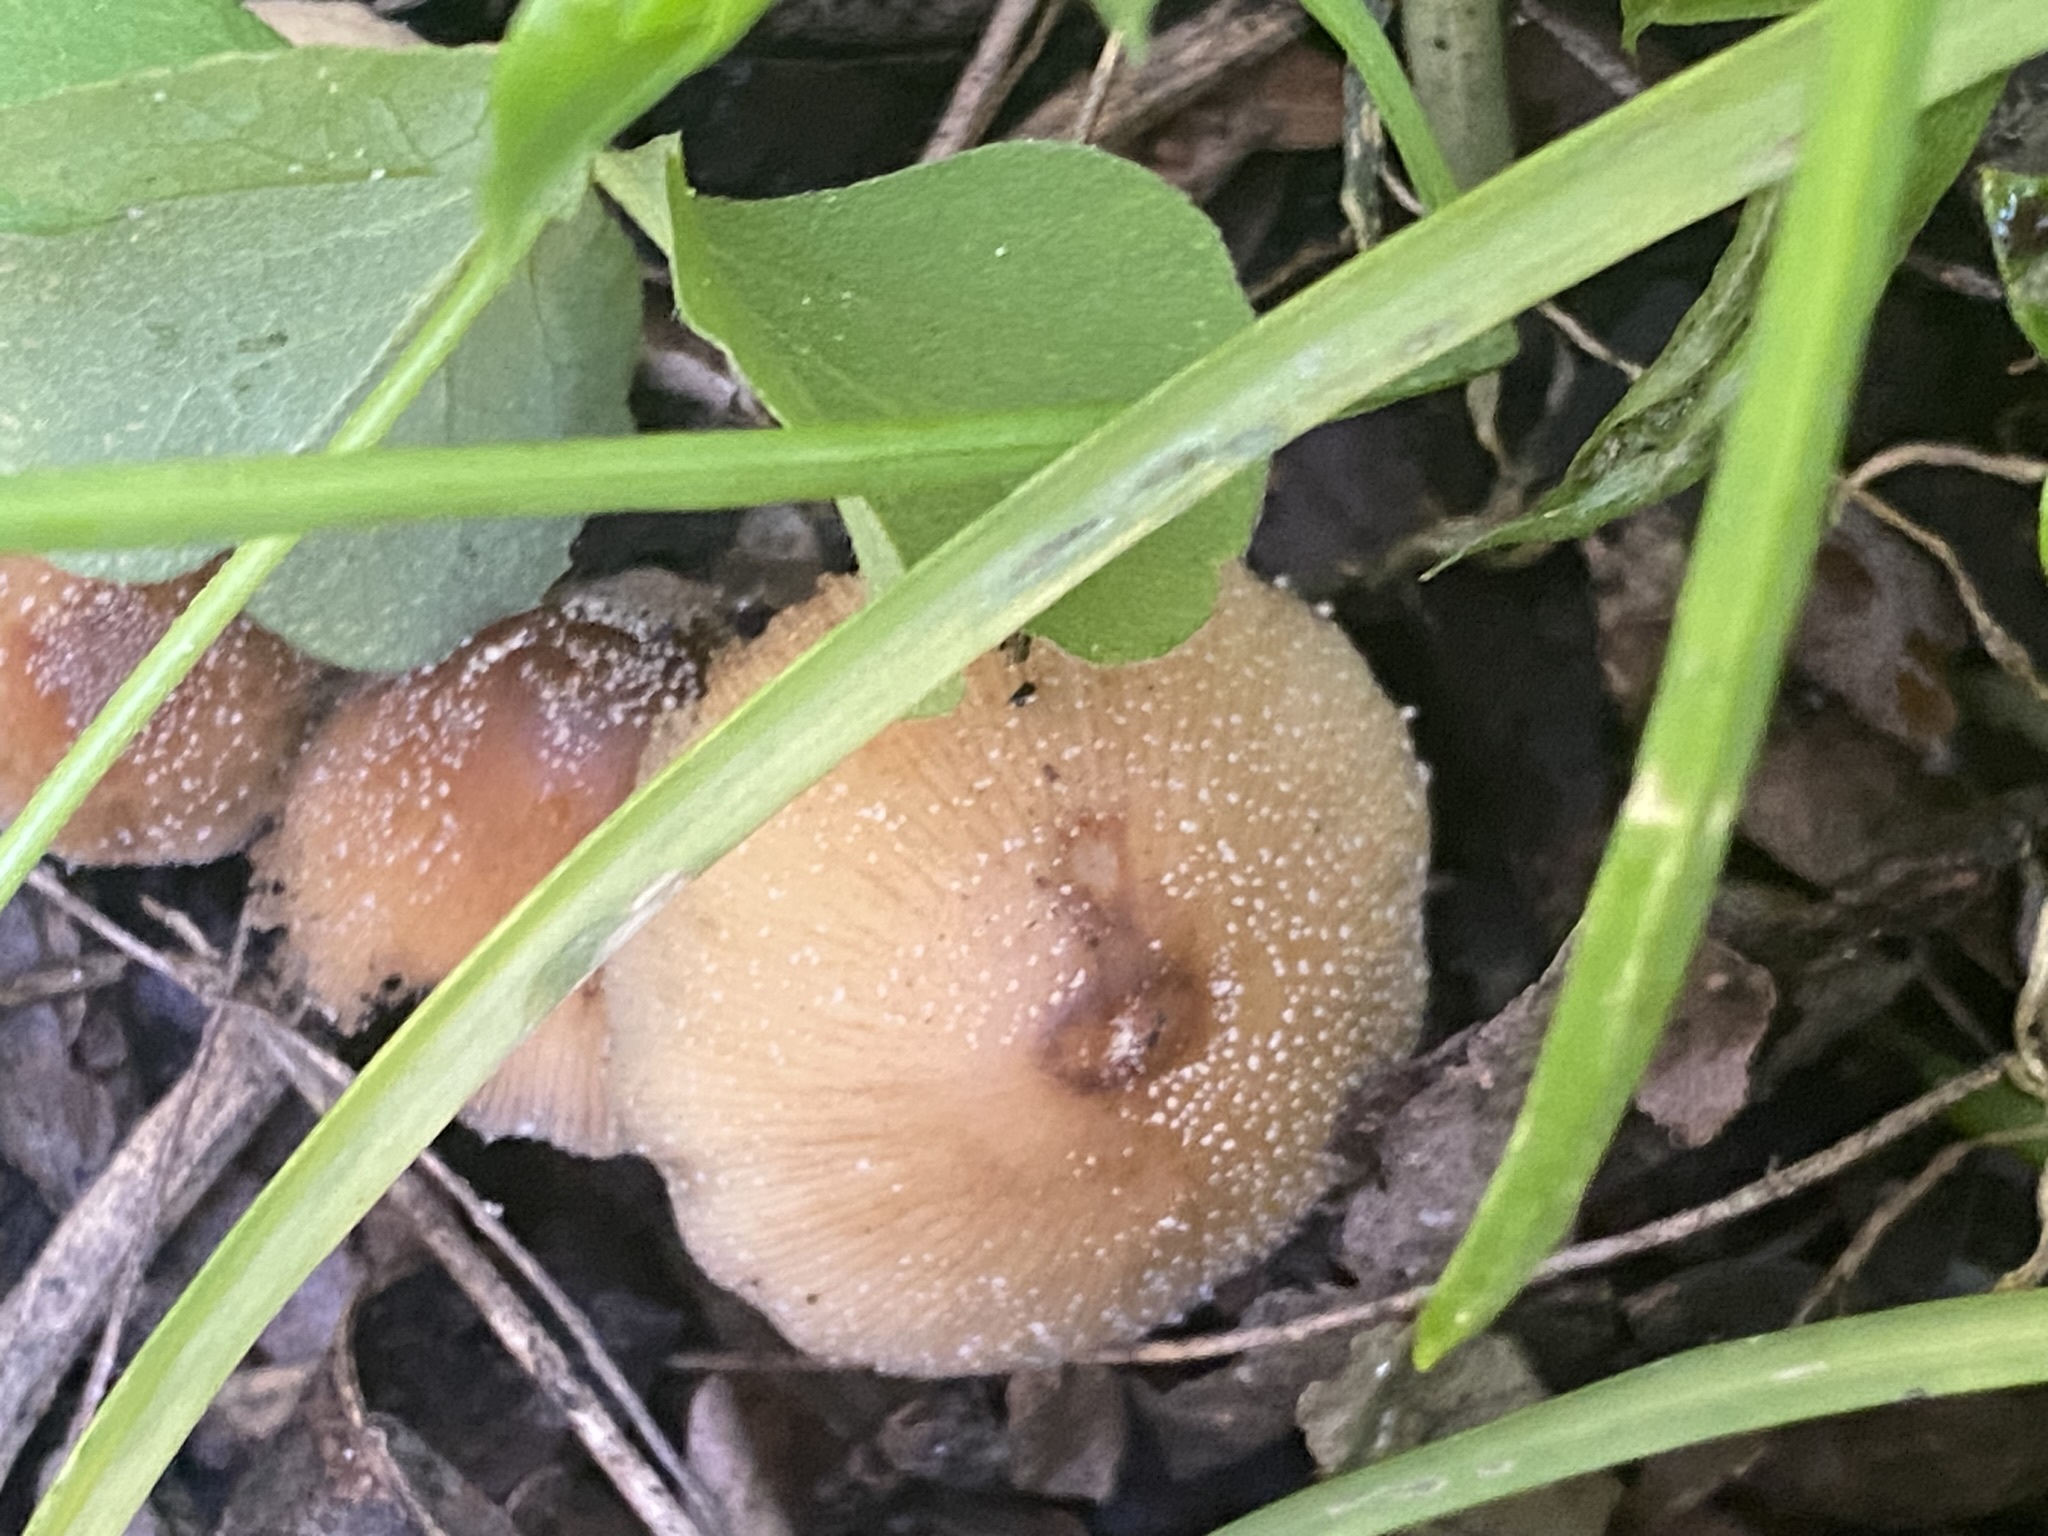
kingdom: Fungi
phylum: Basidiomycota
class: Agaricomycetes
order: Agaricales
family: Psathyrellaceae
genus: Coprinellus
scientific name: Coprinellus micaceus
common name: Glistening ink-cap
